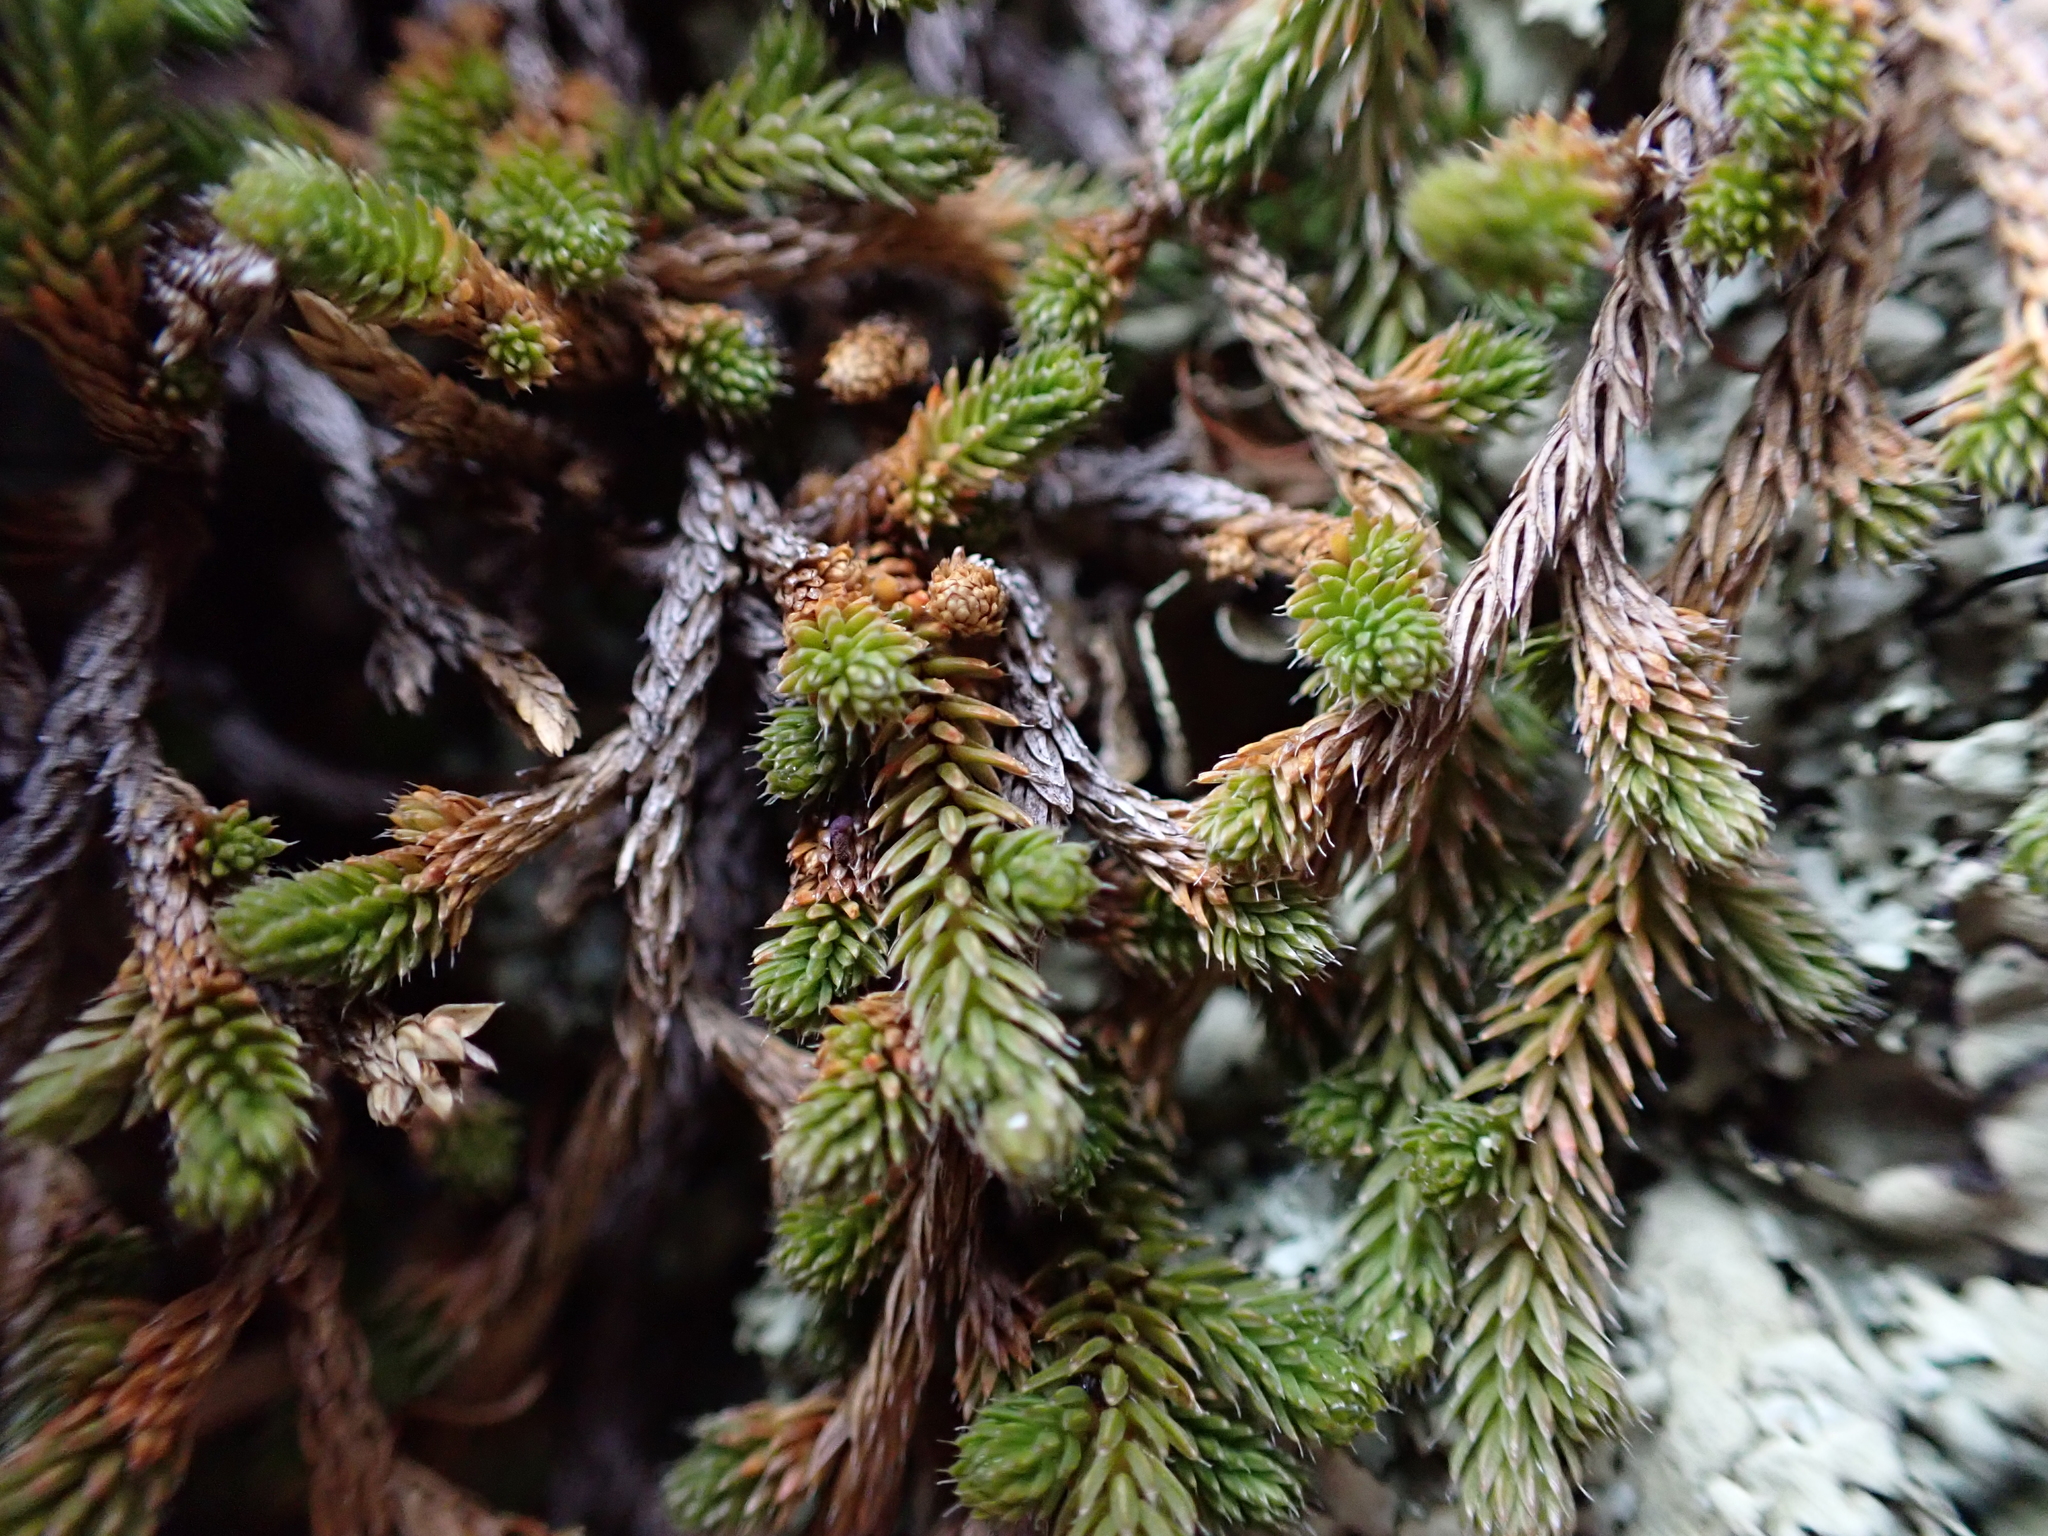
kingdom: Plantae
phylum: Tracheophyta
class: Lycopodiopsida
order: Selaginellales
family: Selaginellaceae
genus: Selaginella
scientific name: Selaginella wallacei
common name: Wallace's selaginella
